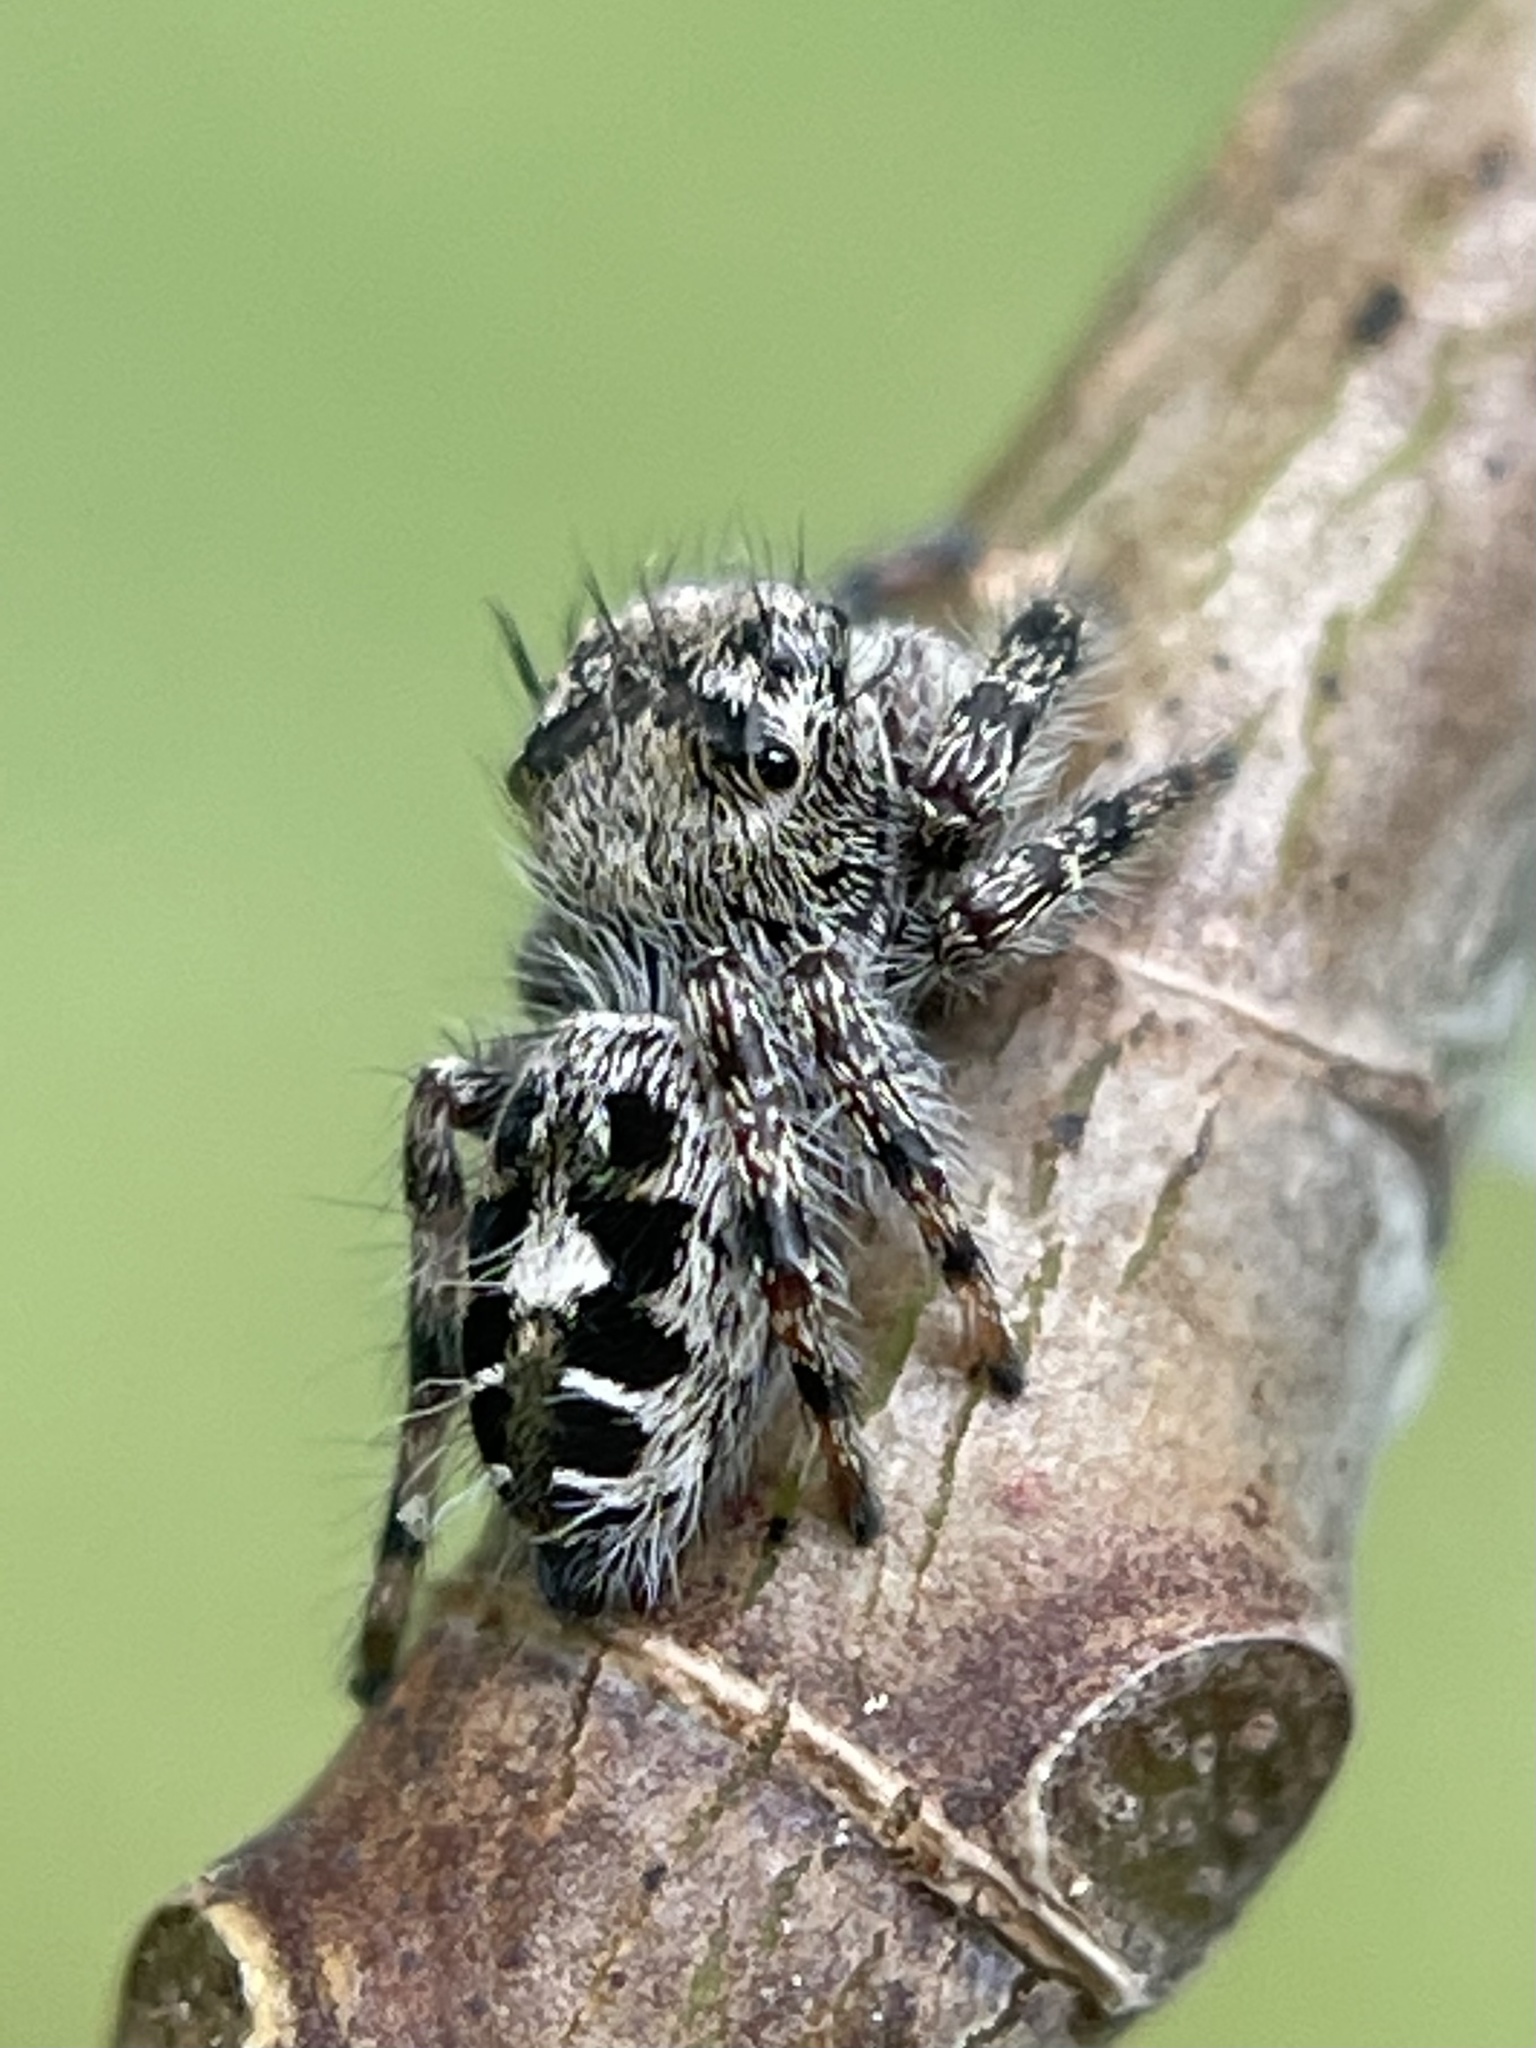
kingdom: Animalia
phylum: Arthropoda
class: Arachnida
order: Araneae
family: Salticidae
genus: Phidippus
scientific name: Phidippus putnami
